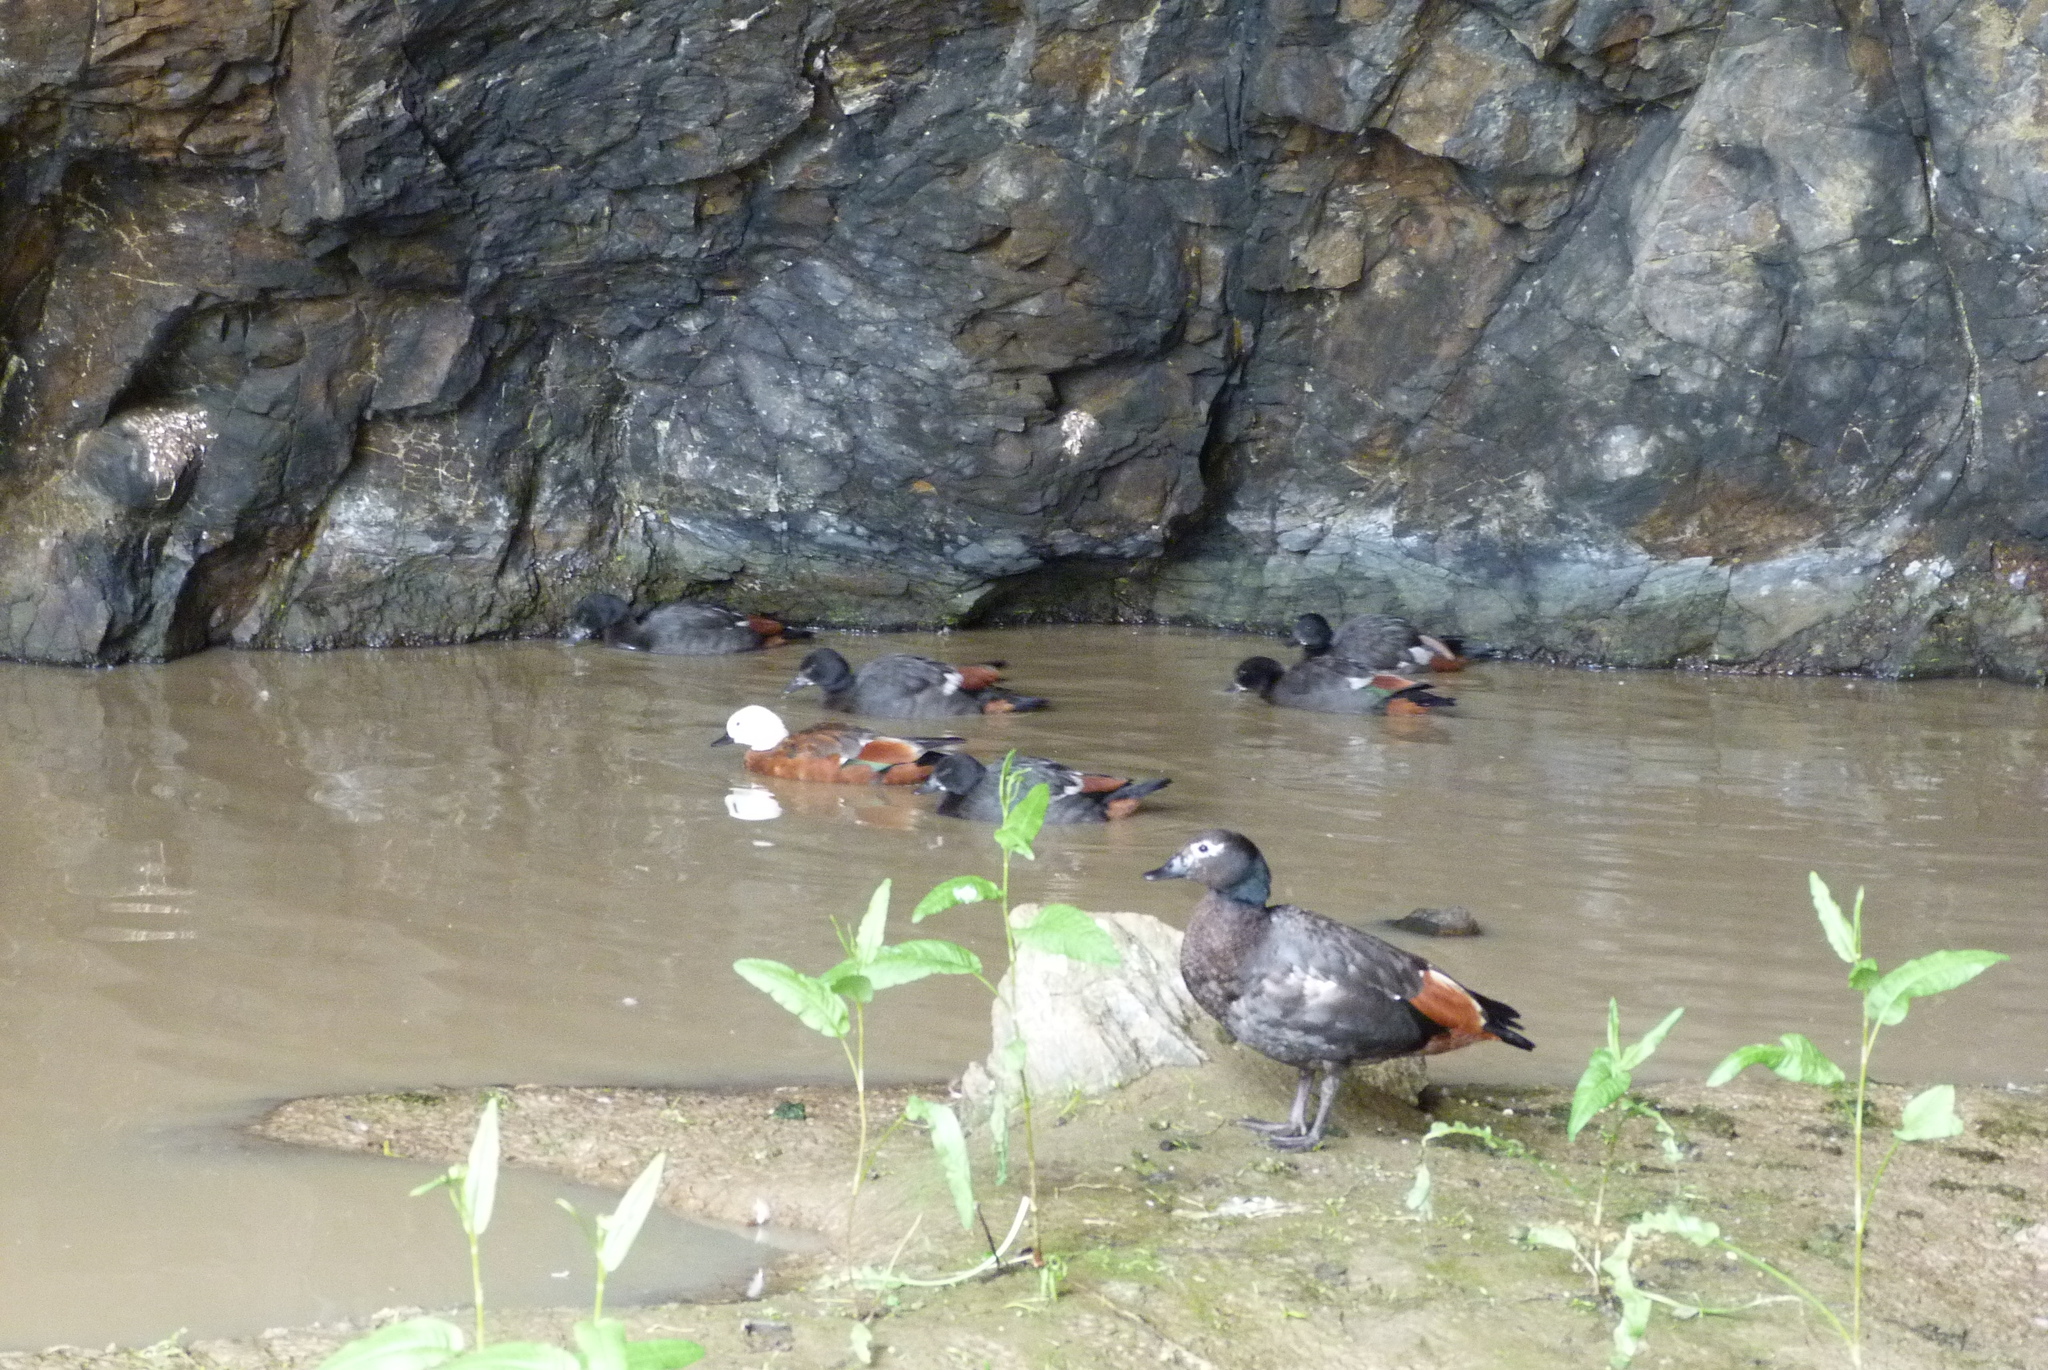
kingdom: Animalia
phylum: Chordata
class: Aves
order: Anseriformes
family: Anatidae
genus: Tadorna
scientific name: Tadorna variegata
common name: Paradise shelduck
